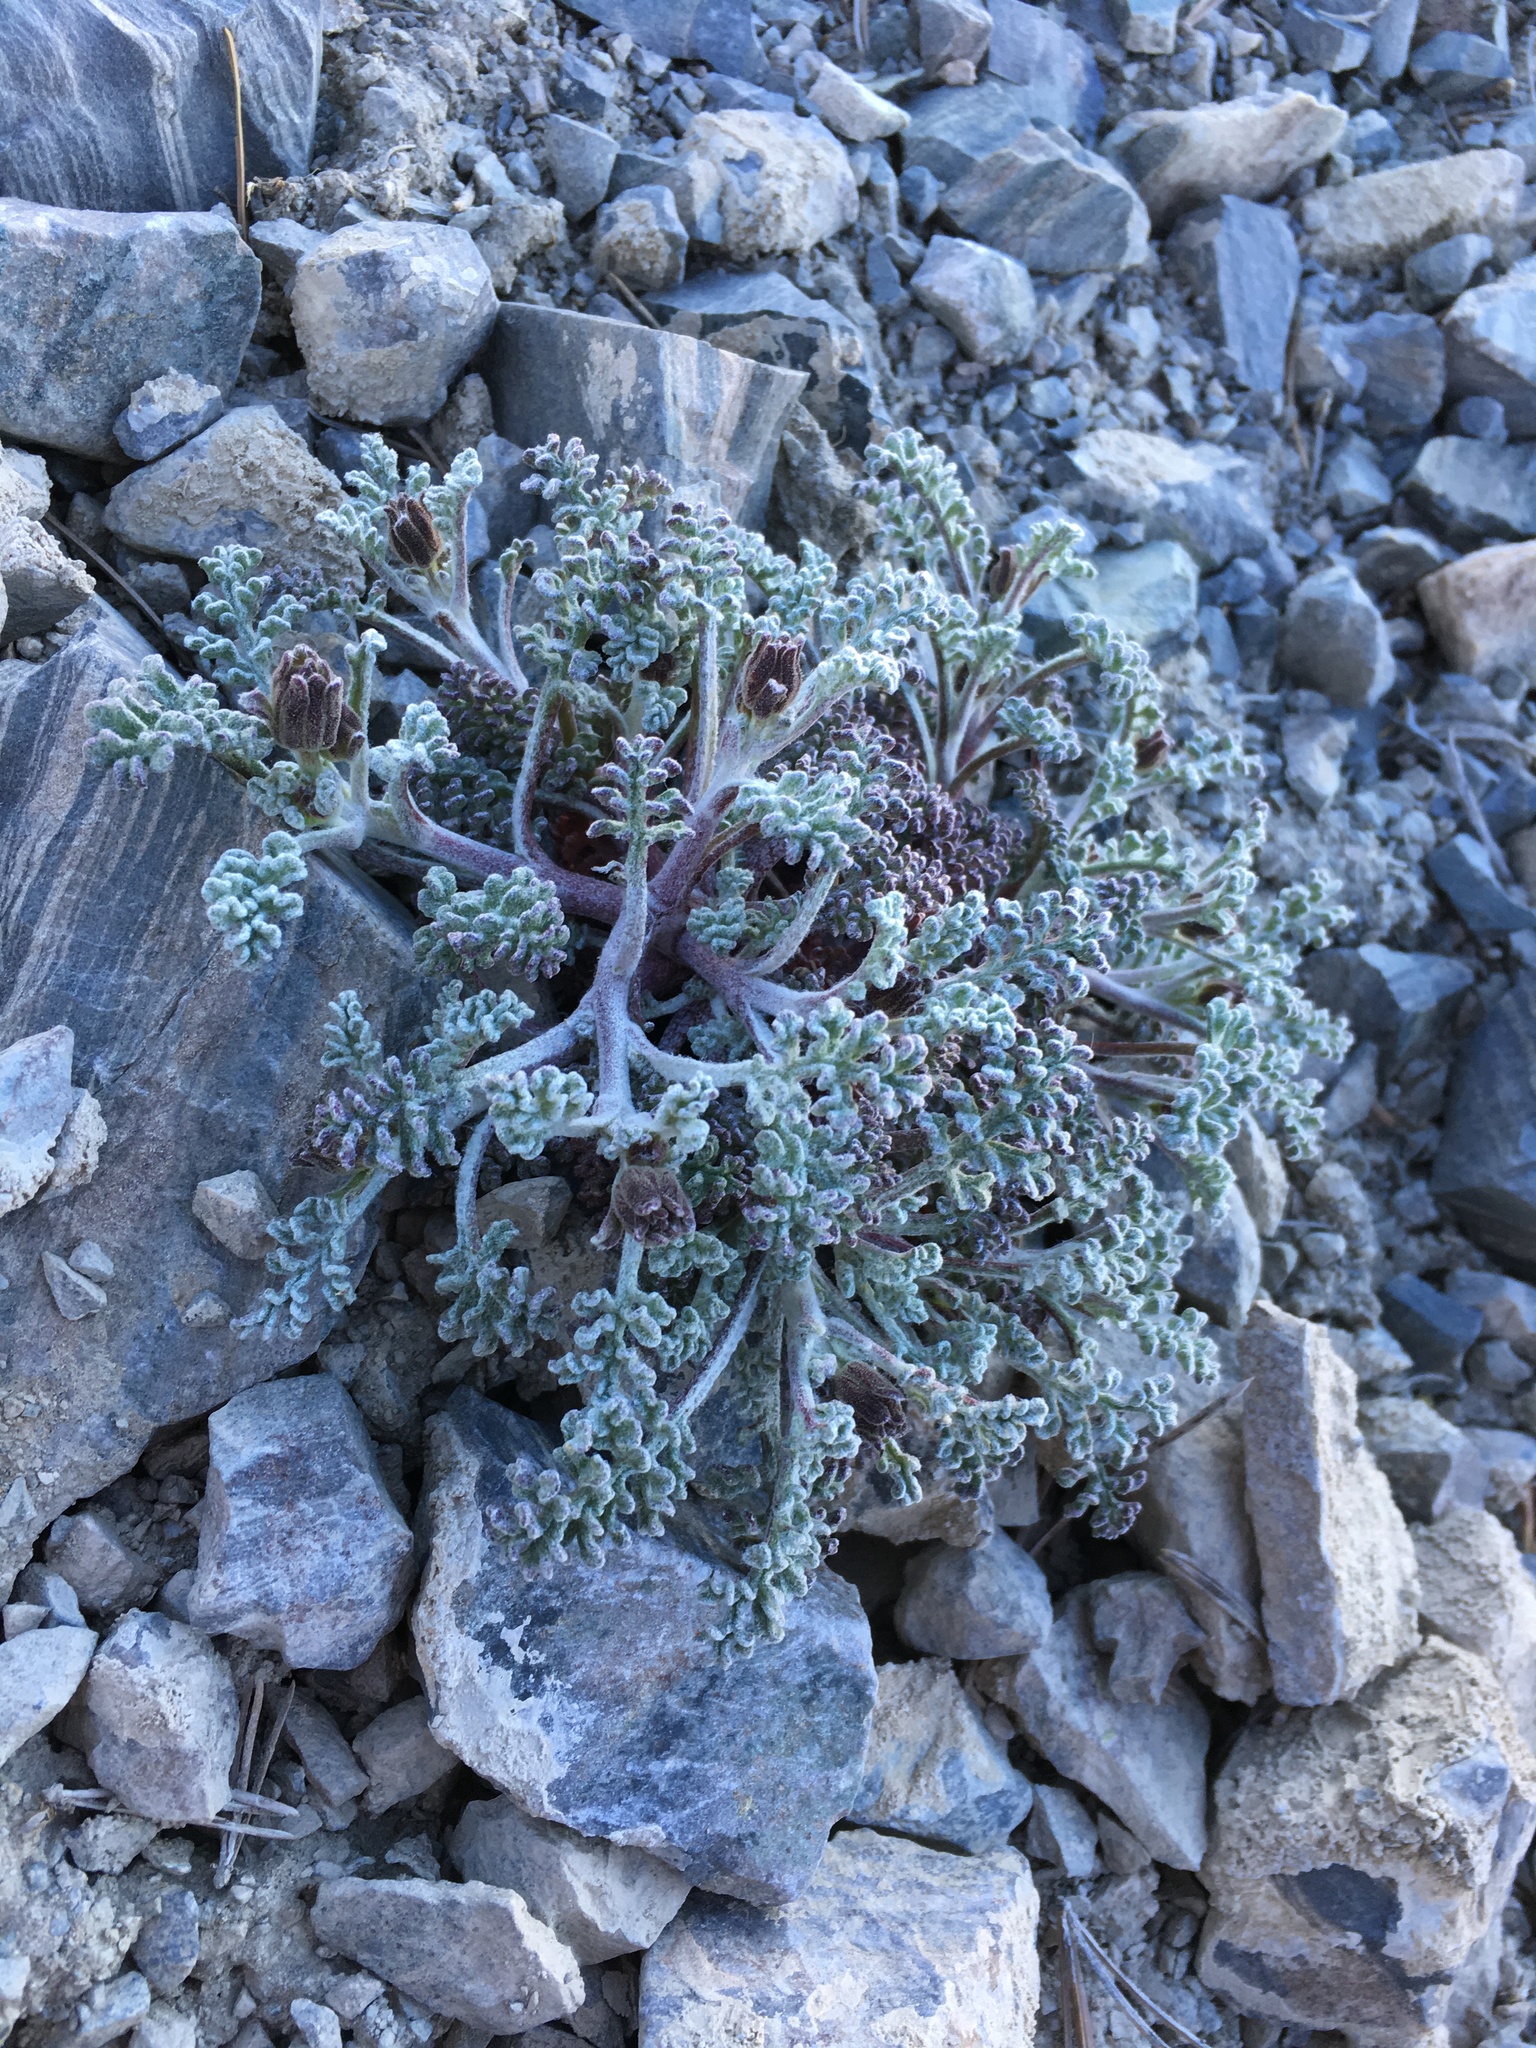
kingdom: Plantae
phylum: Tracheophyta
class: Magnoliopsida
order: Asterales
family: Asteraceae
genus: Chaenactis
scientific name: Chaenactis douglasii
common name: Hoary pincushion
